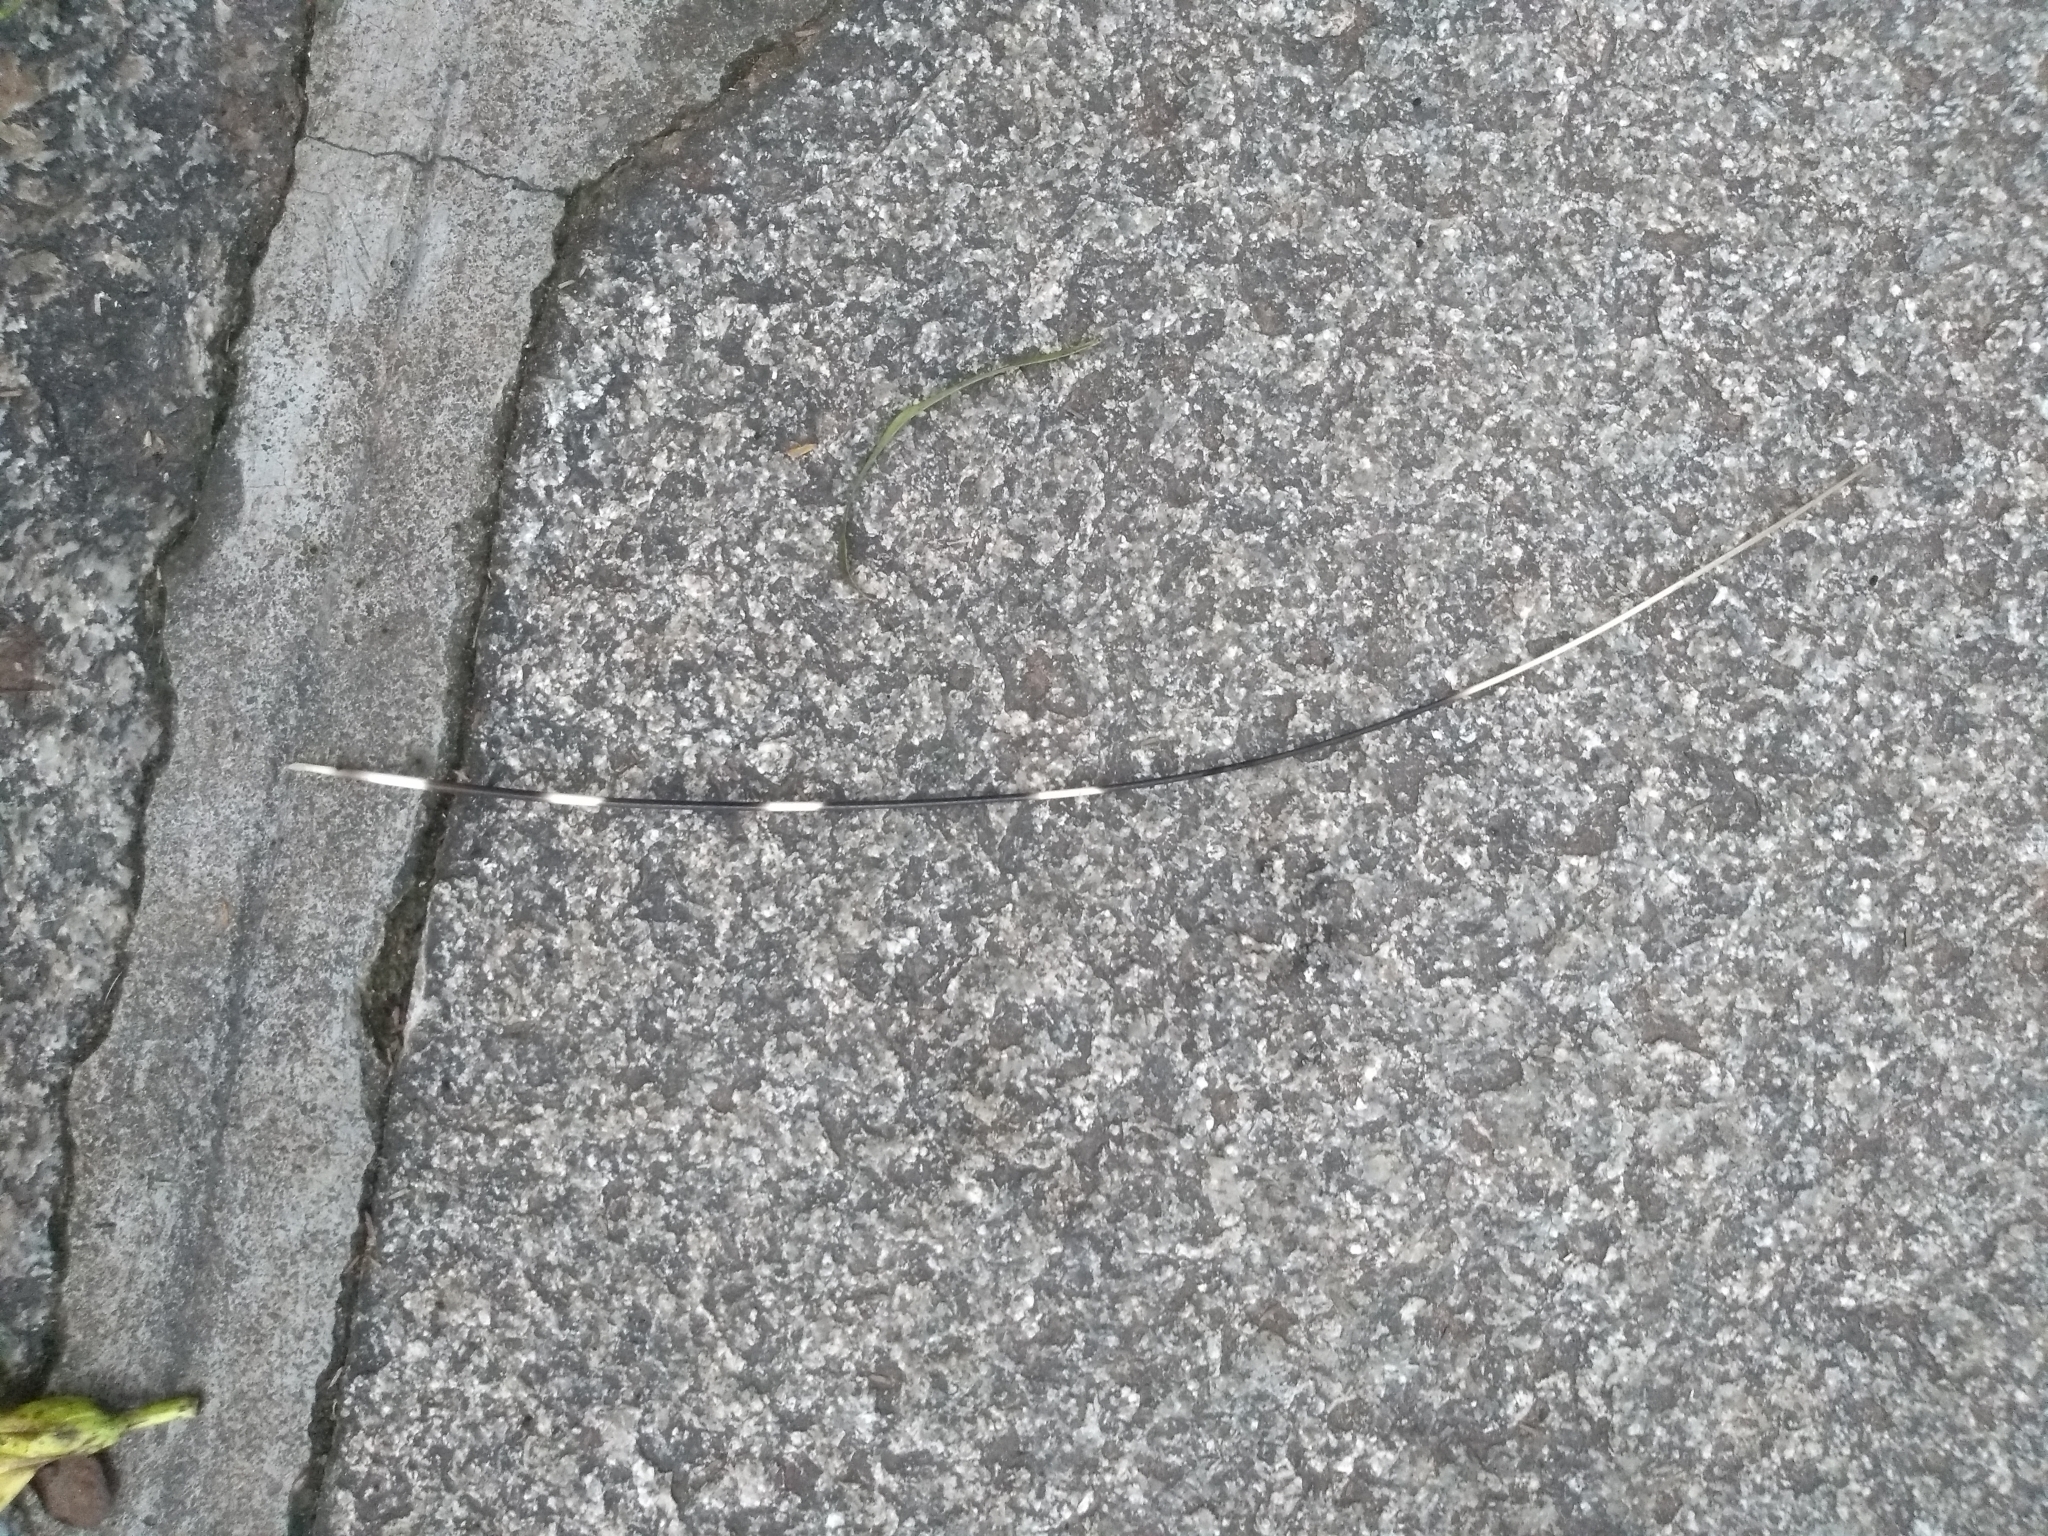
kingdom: Animalia
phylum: Chordata
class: Mammalia
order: Rodentia
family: Hystricidae
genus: Hystrix
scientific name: Hystrix indica
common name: Indian crested porcupine
